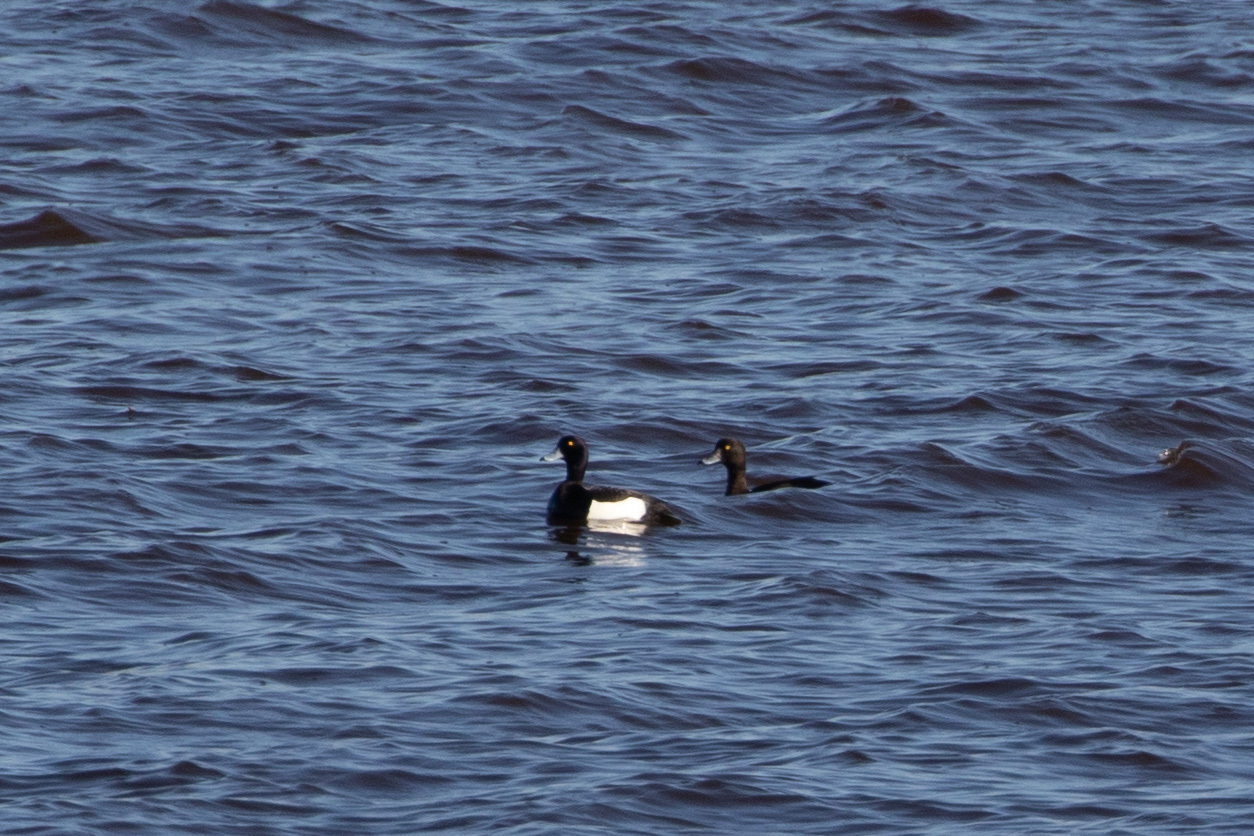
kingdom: Animalia
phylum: Chordata
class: Aves
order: Anseriformes
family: Anatidae
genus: Aythya
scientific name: Aythya fuligula
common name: Tufted duck
